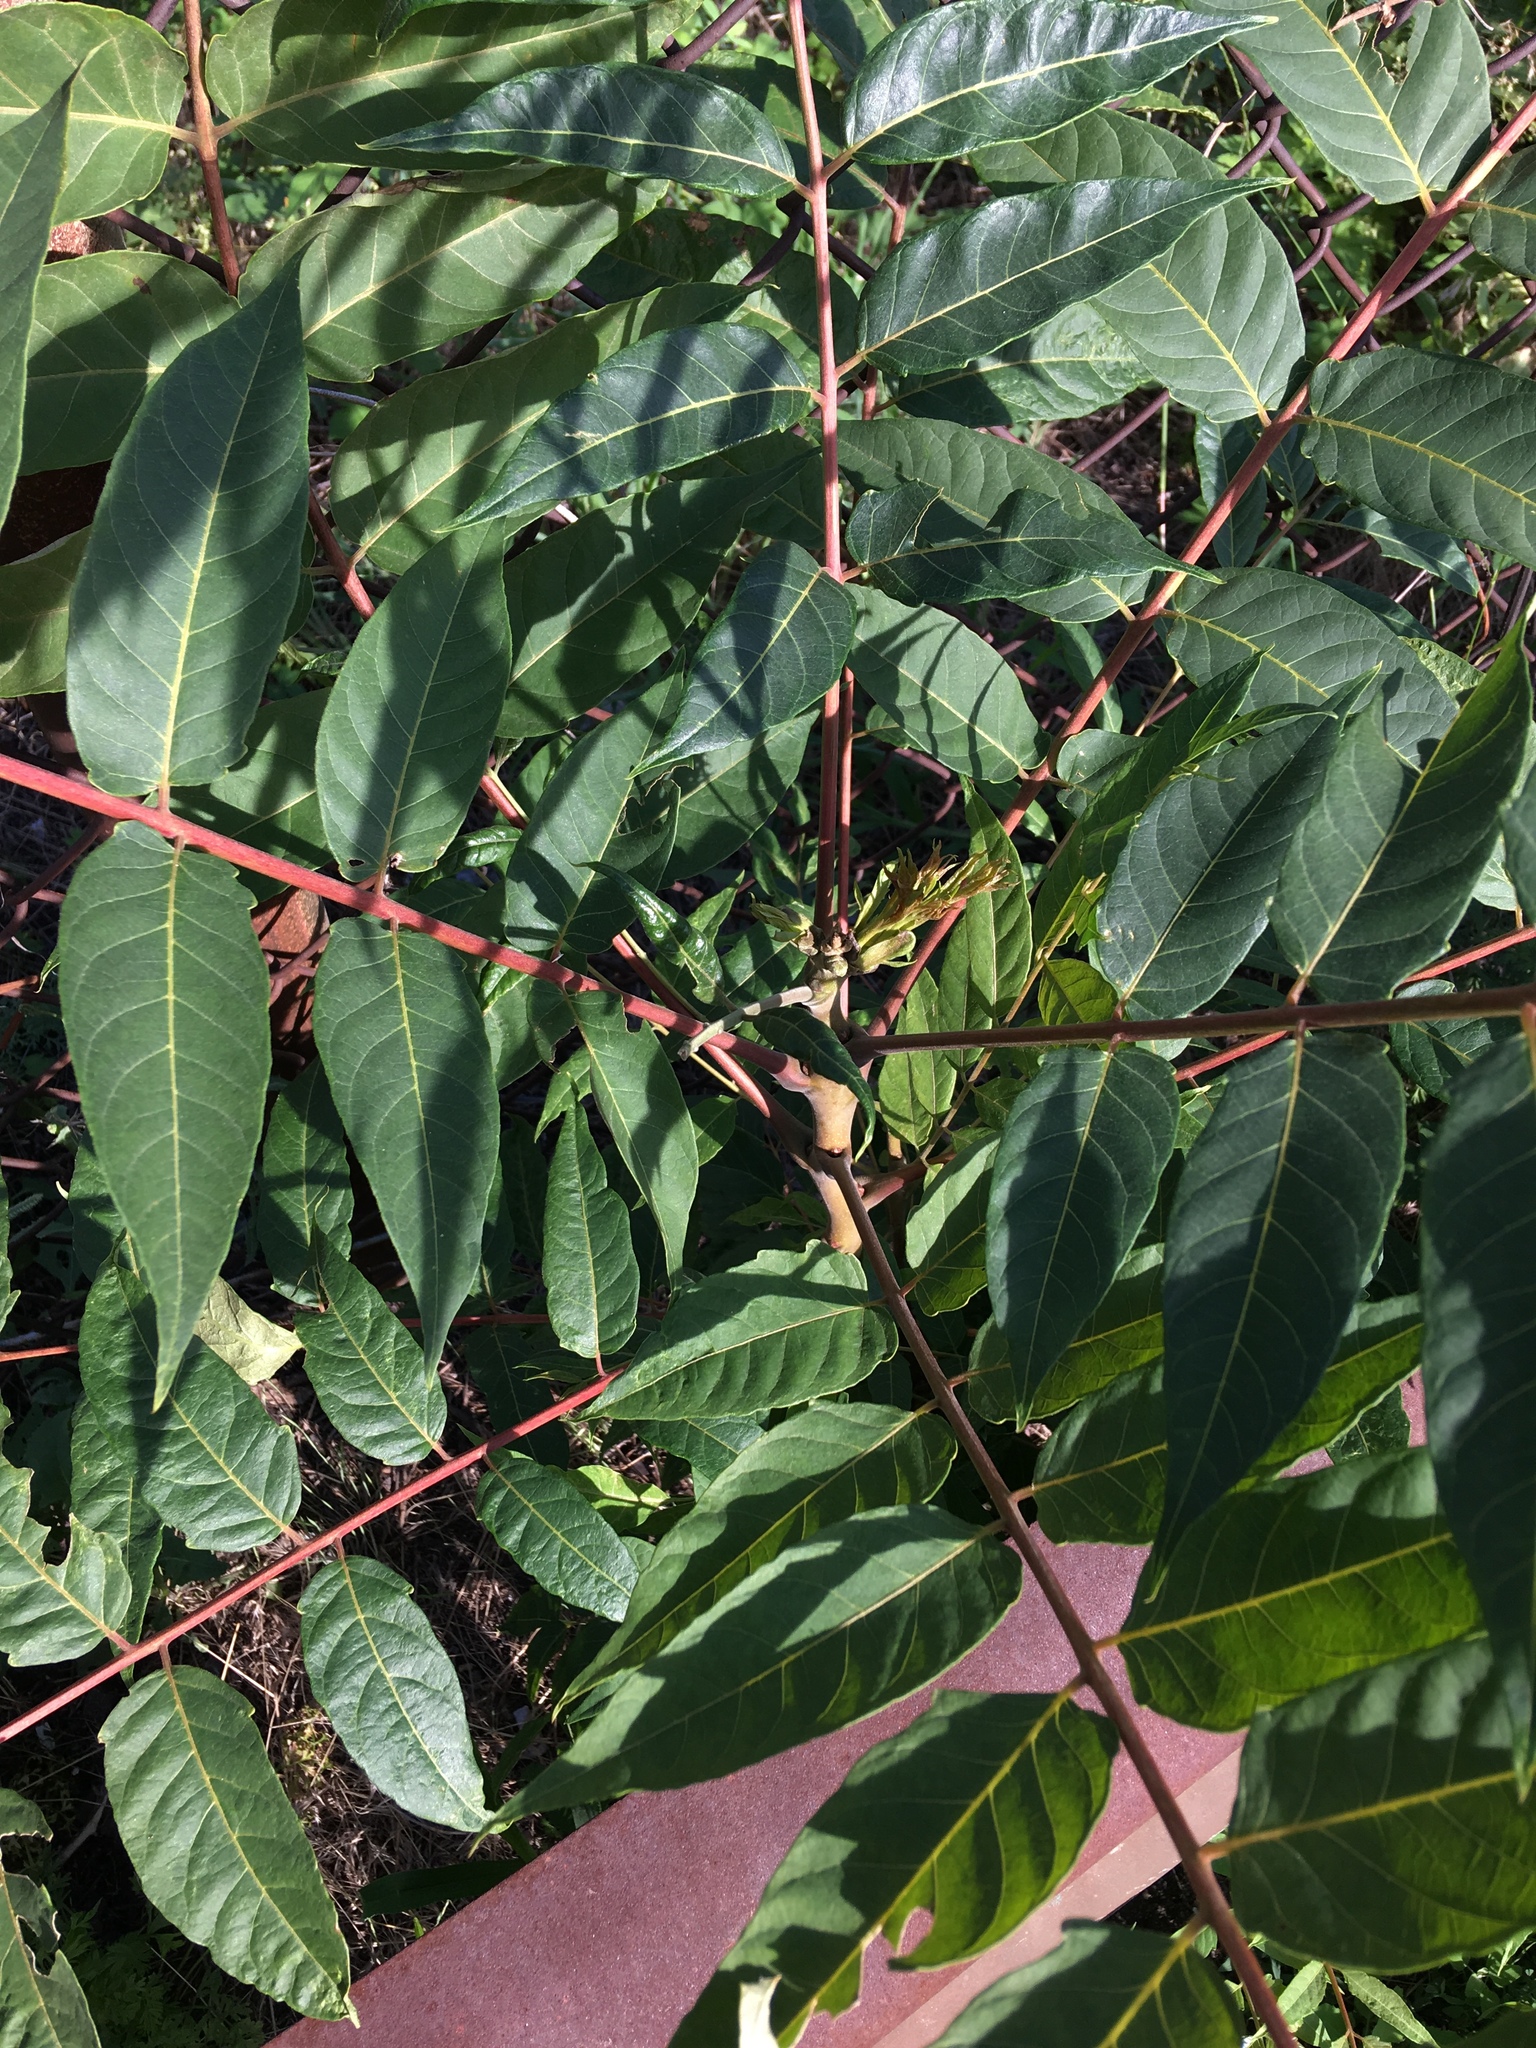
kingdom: Plantae
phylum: Tracheophyta
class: Magnoliopsida
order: Sapindales
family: Simaroubaceae
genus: Ailanthus
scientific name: Ailanthus altissima
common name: Tree-of-heaven
